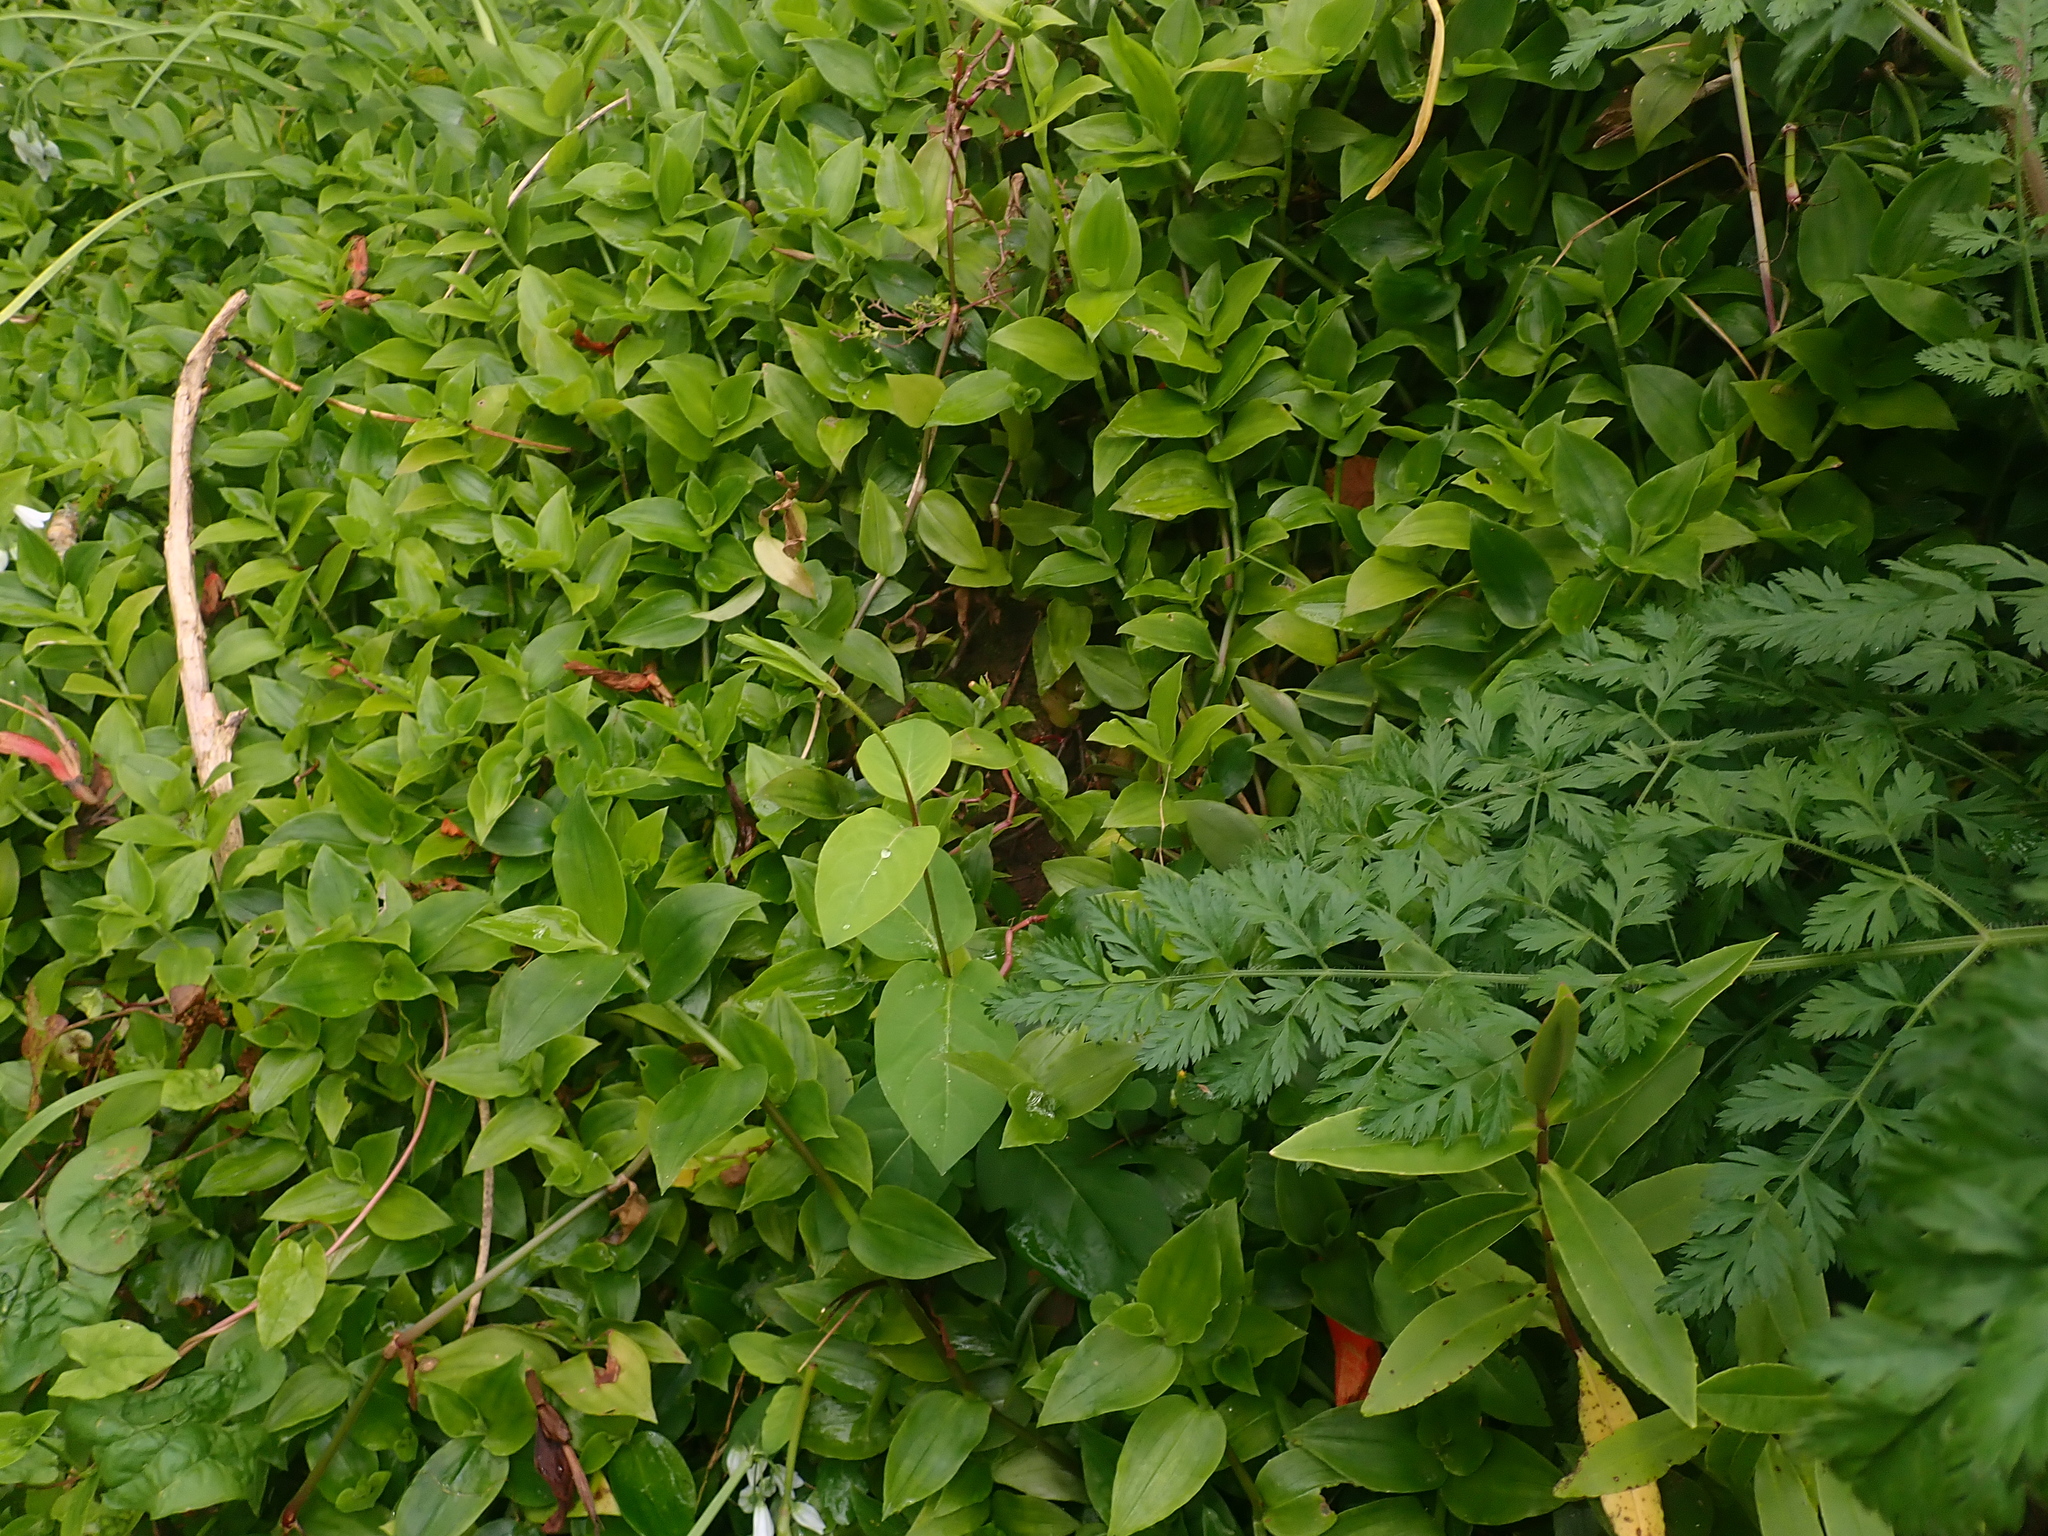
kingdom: Plantae
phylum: Tracheophyta
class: Magnoliopsida
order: Dipsacales
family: Caprifoliaceae
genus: Lonicera
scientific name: Lonicera japonica
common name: Japanese honeysuckle
